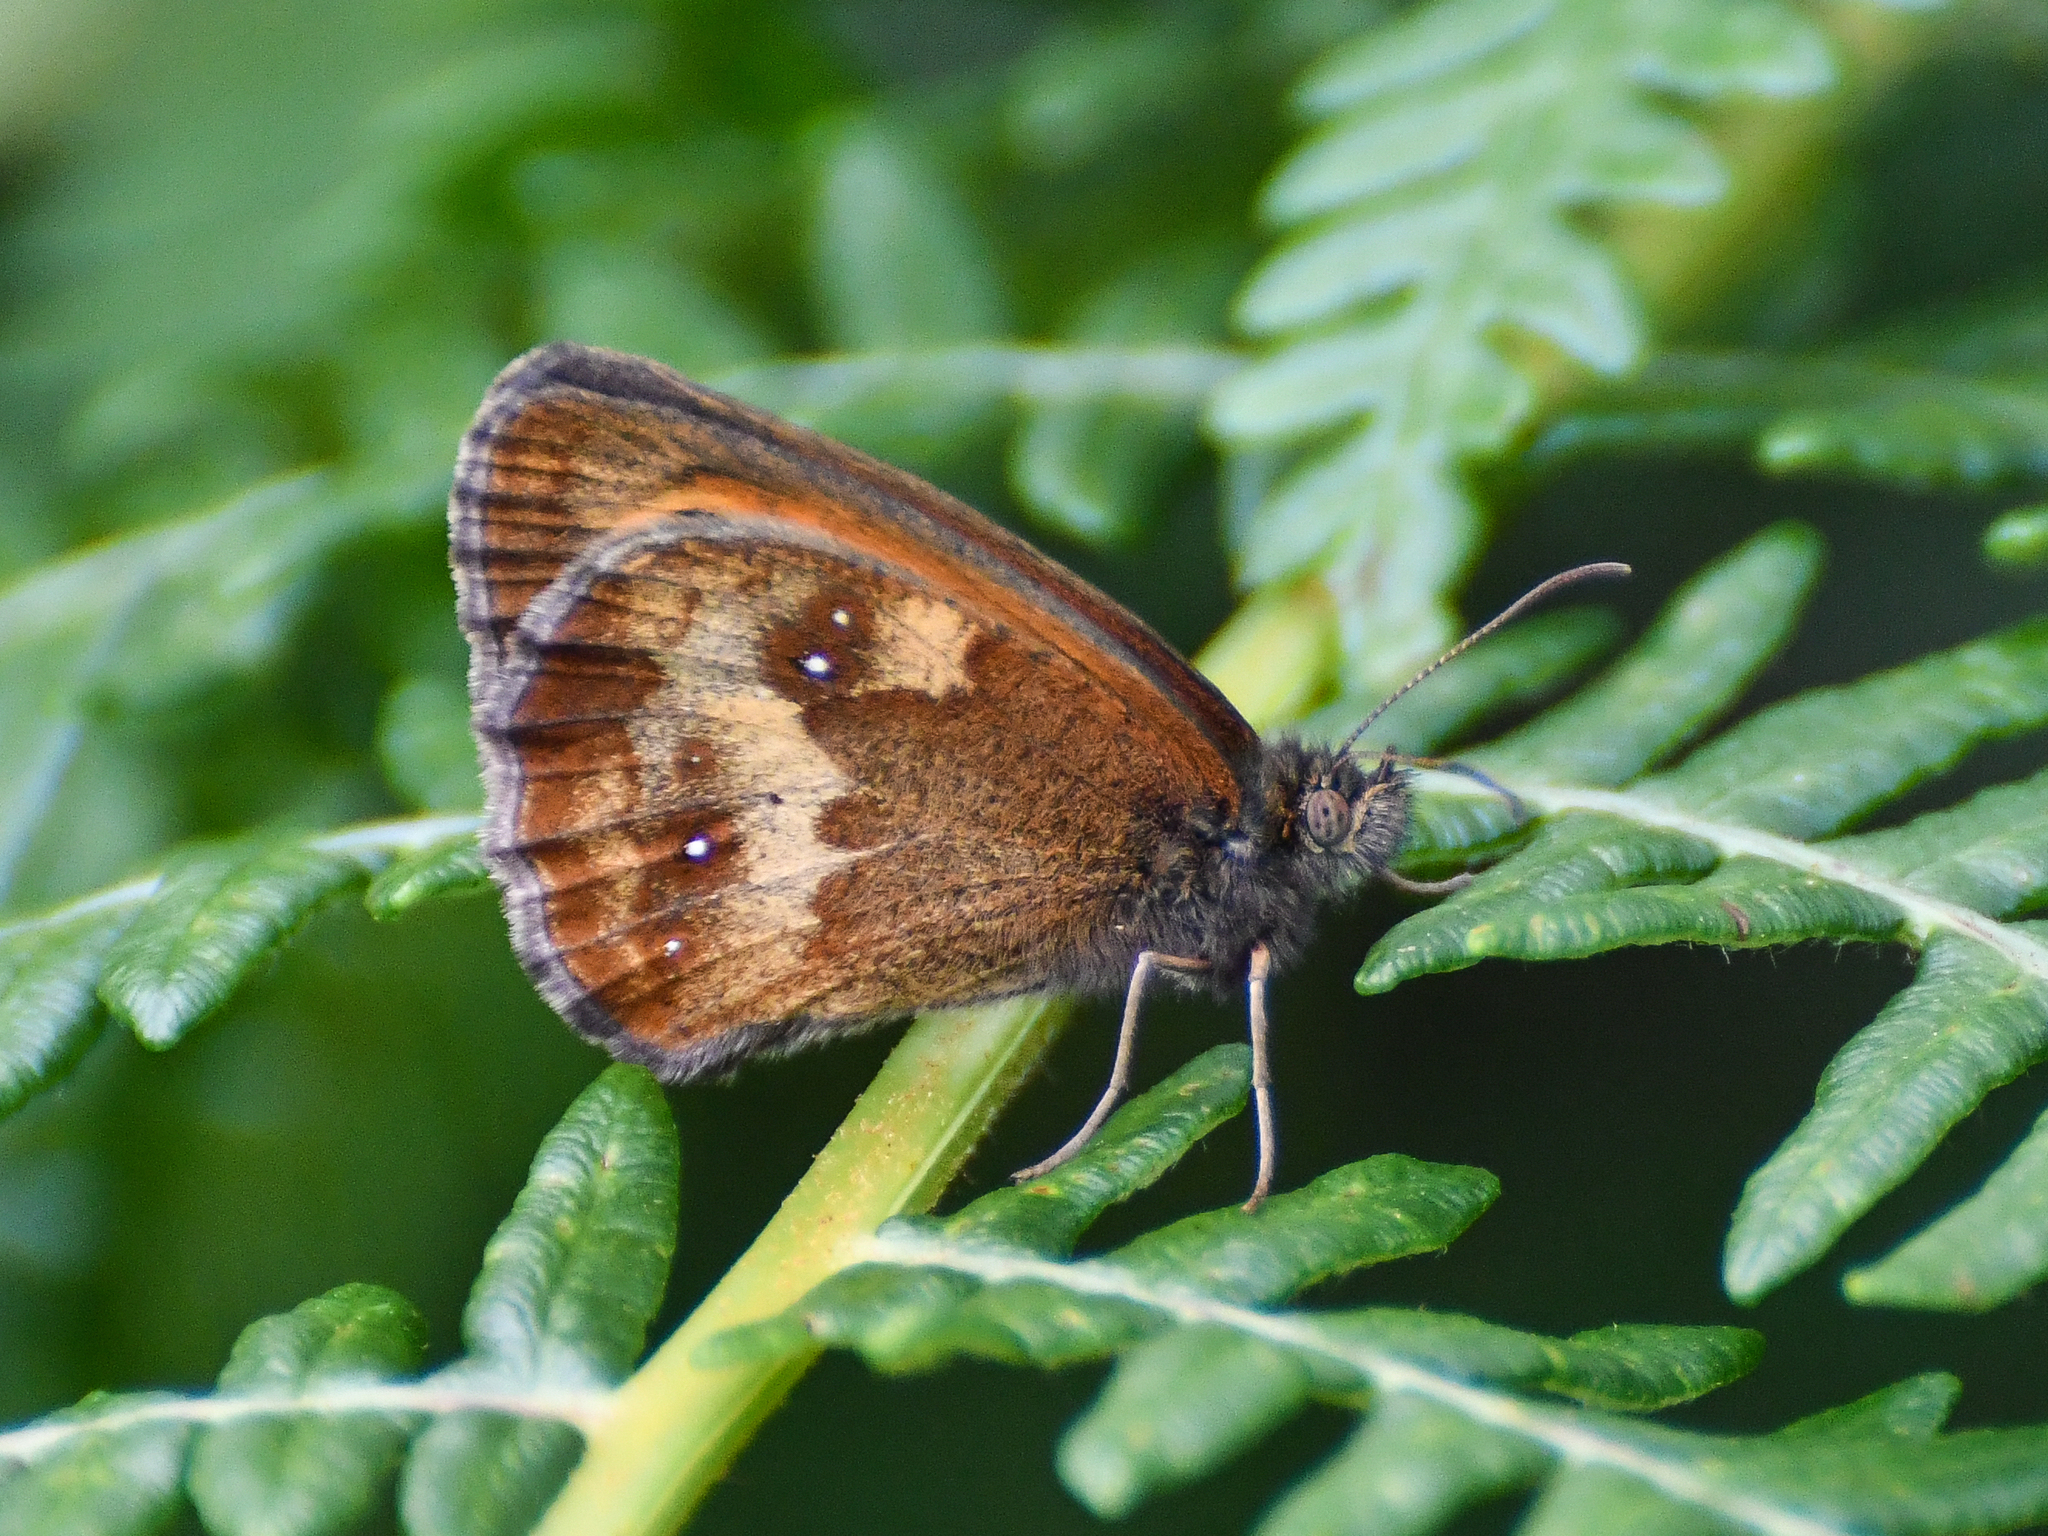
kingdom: Animalia
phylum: Arthropoda
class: Insecta
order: Lepidoptera
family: Nymphalidae
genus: Pyronia
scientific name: Pyronia tithonus
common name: Gatekeeper
